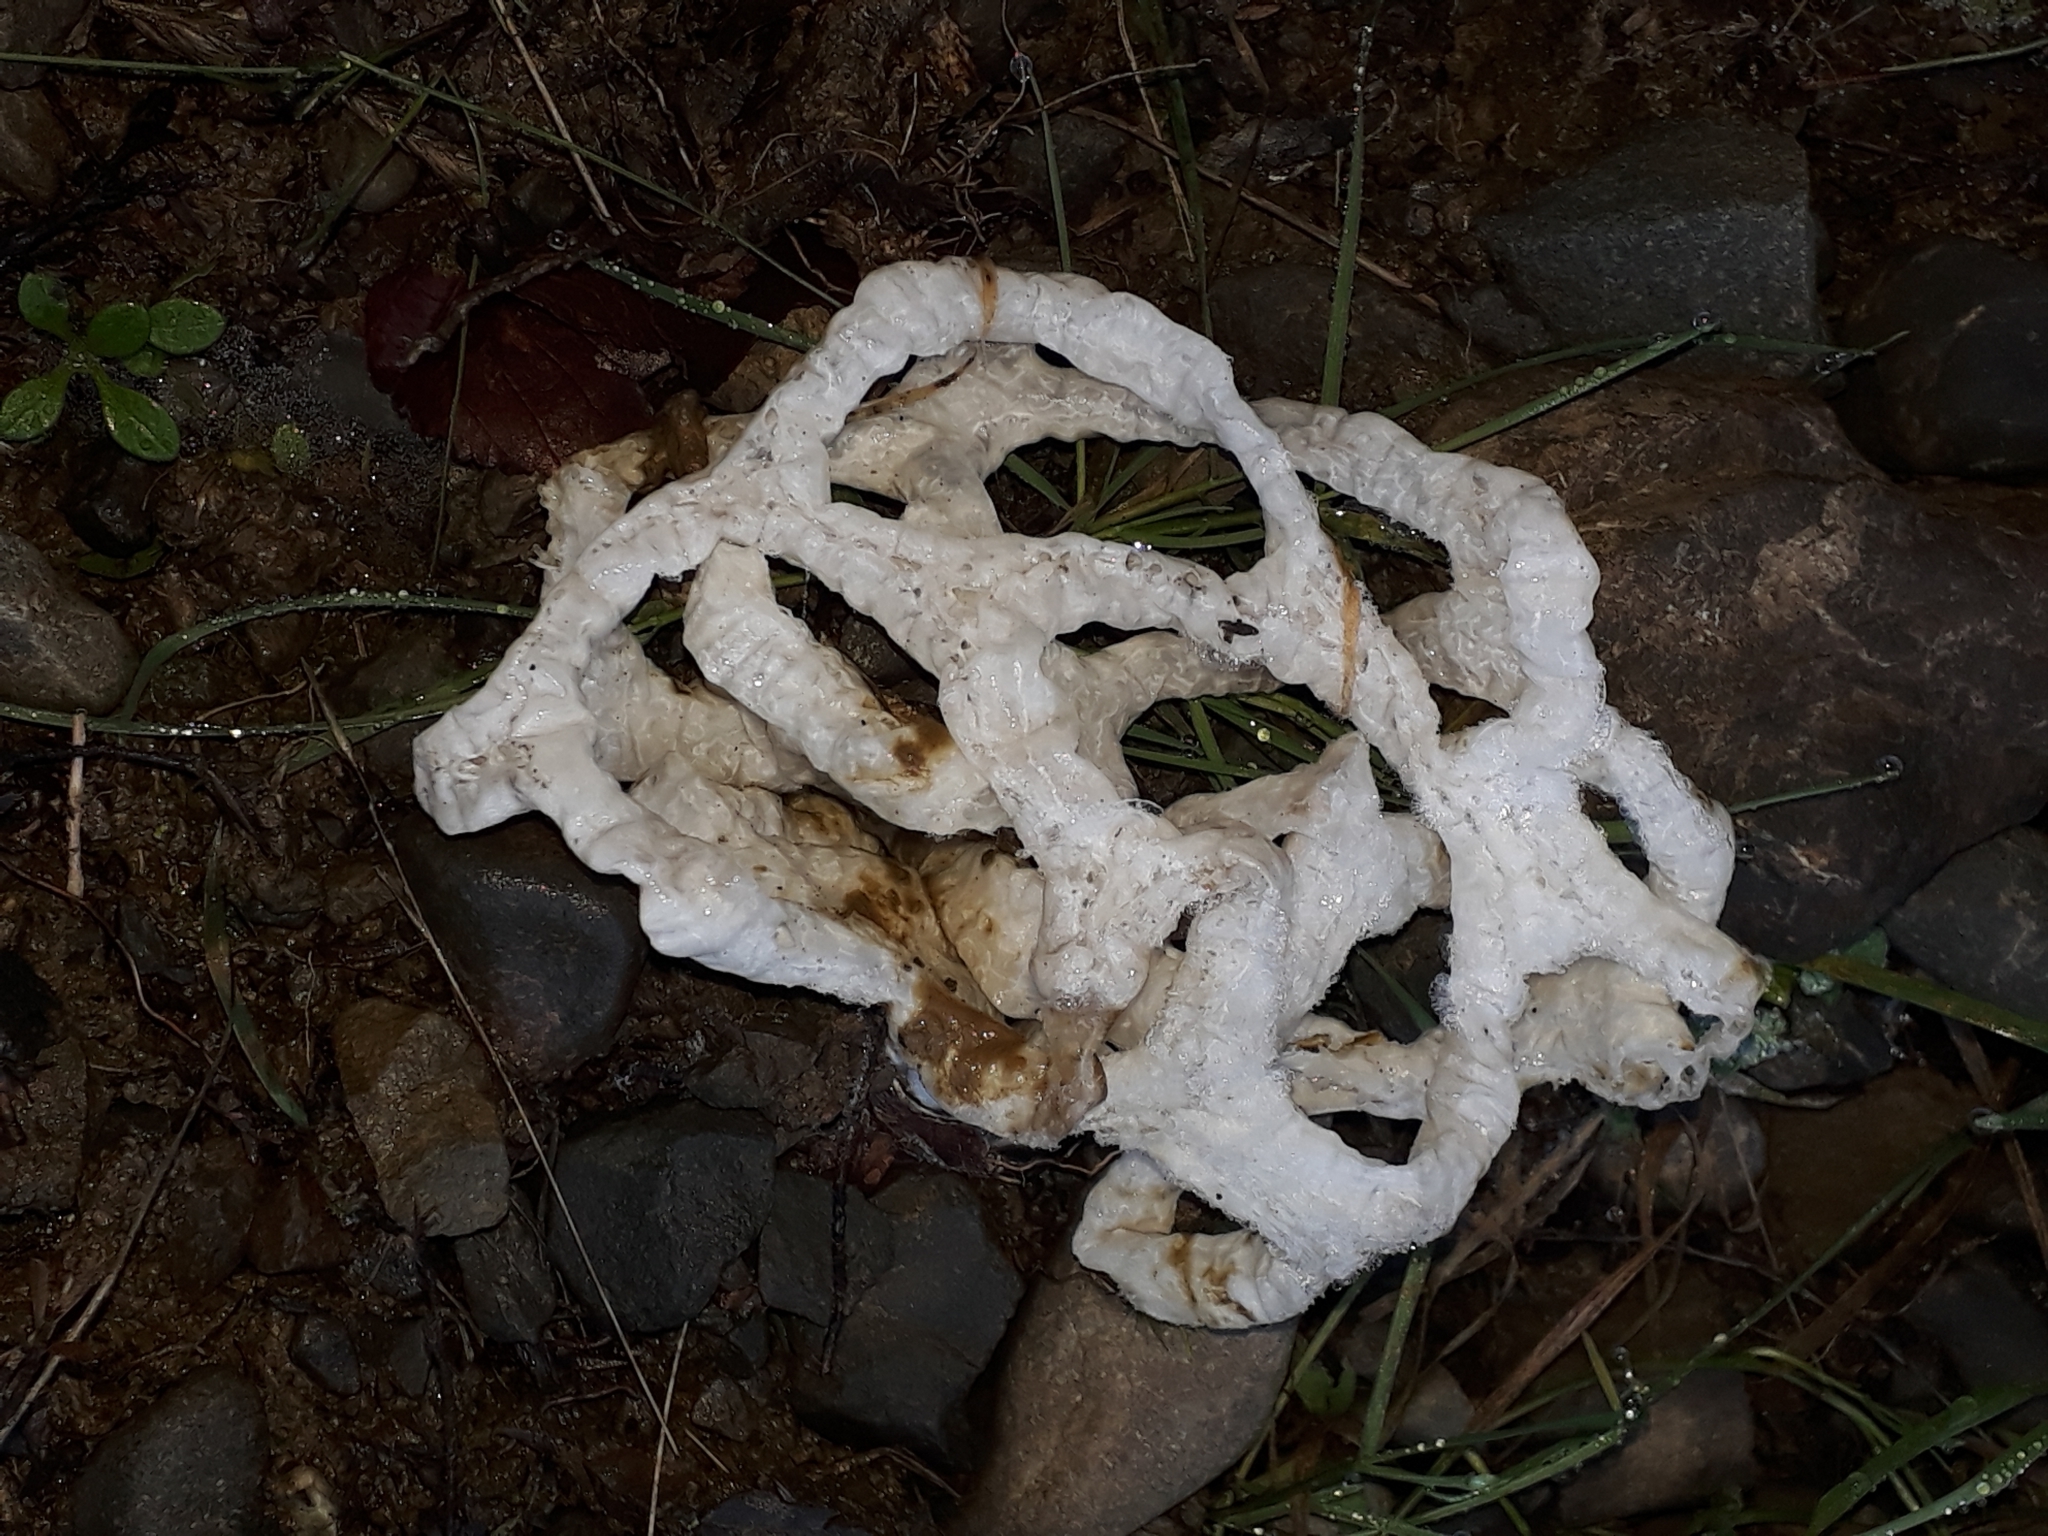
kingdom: Fungi
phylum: Basidiomycota
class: Agaricomycetes
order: Phallales
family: Phallaceae
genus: Ileodictyon
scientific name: Ileodictyon cibarium
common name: Basket fungus
